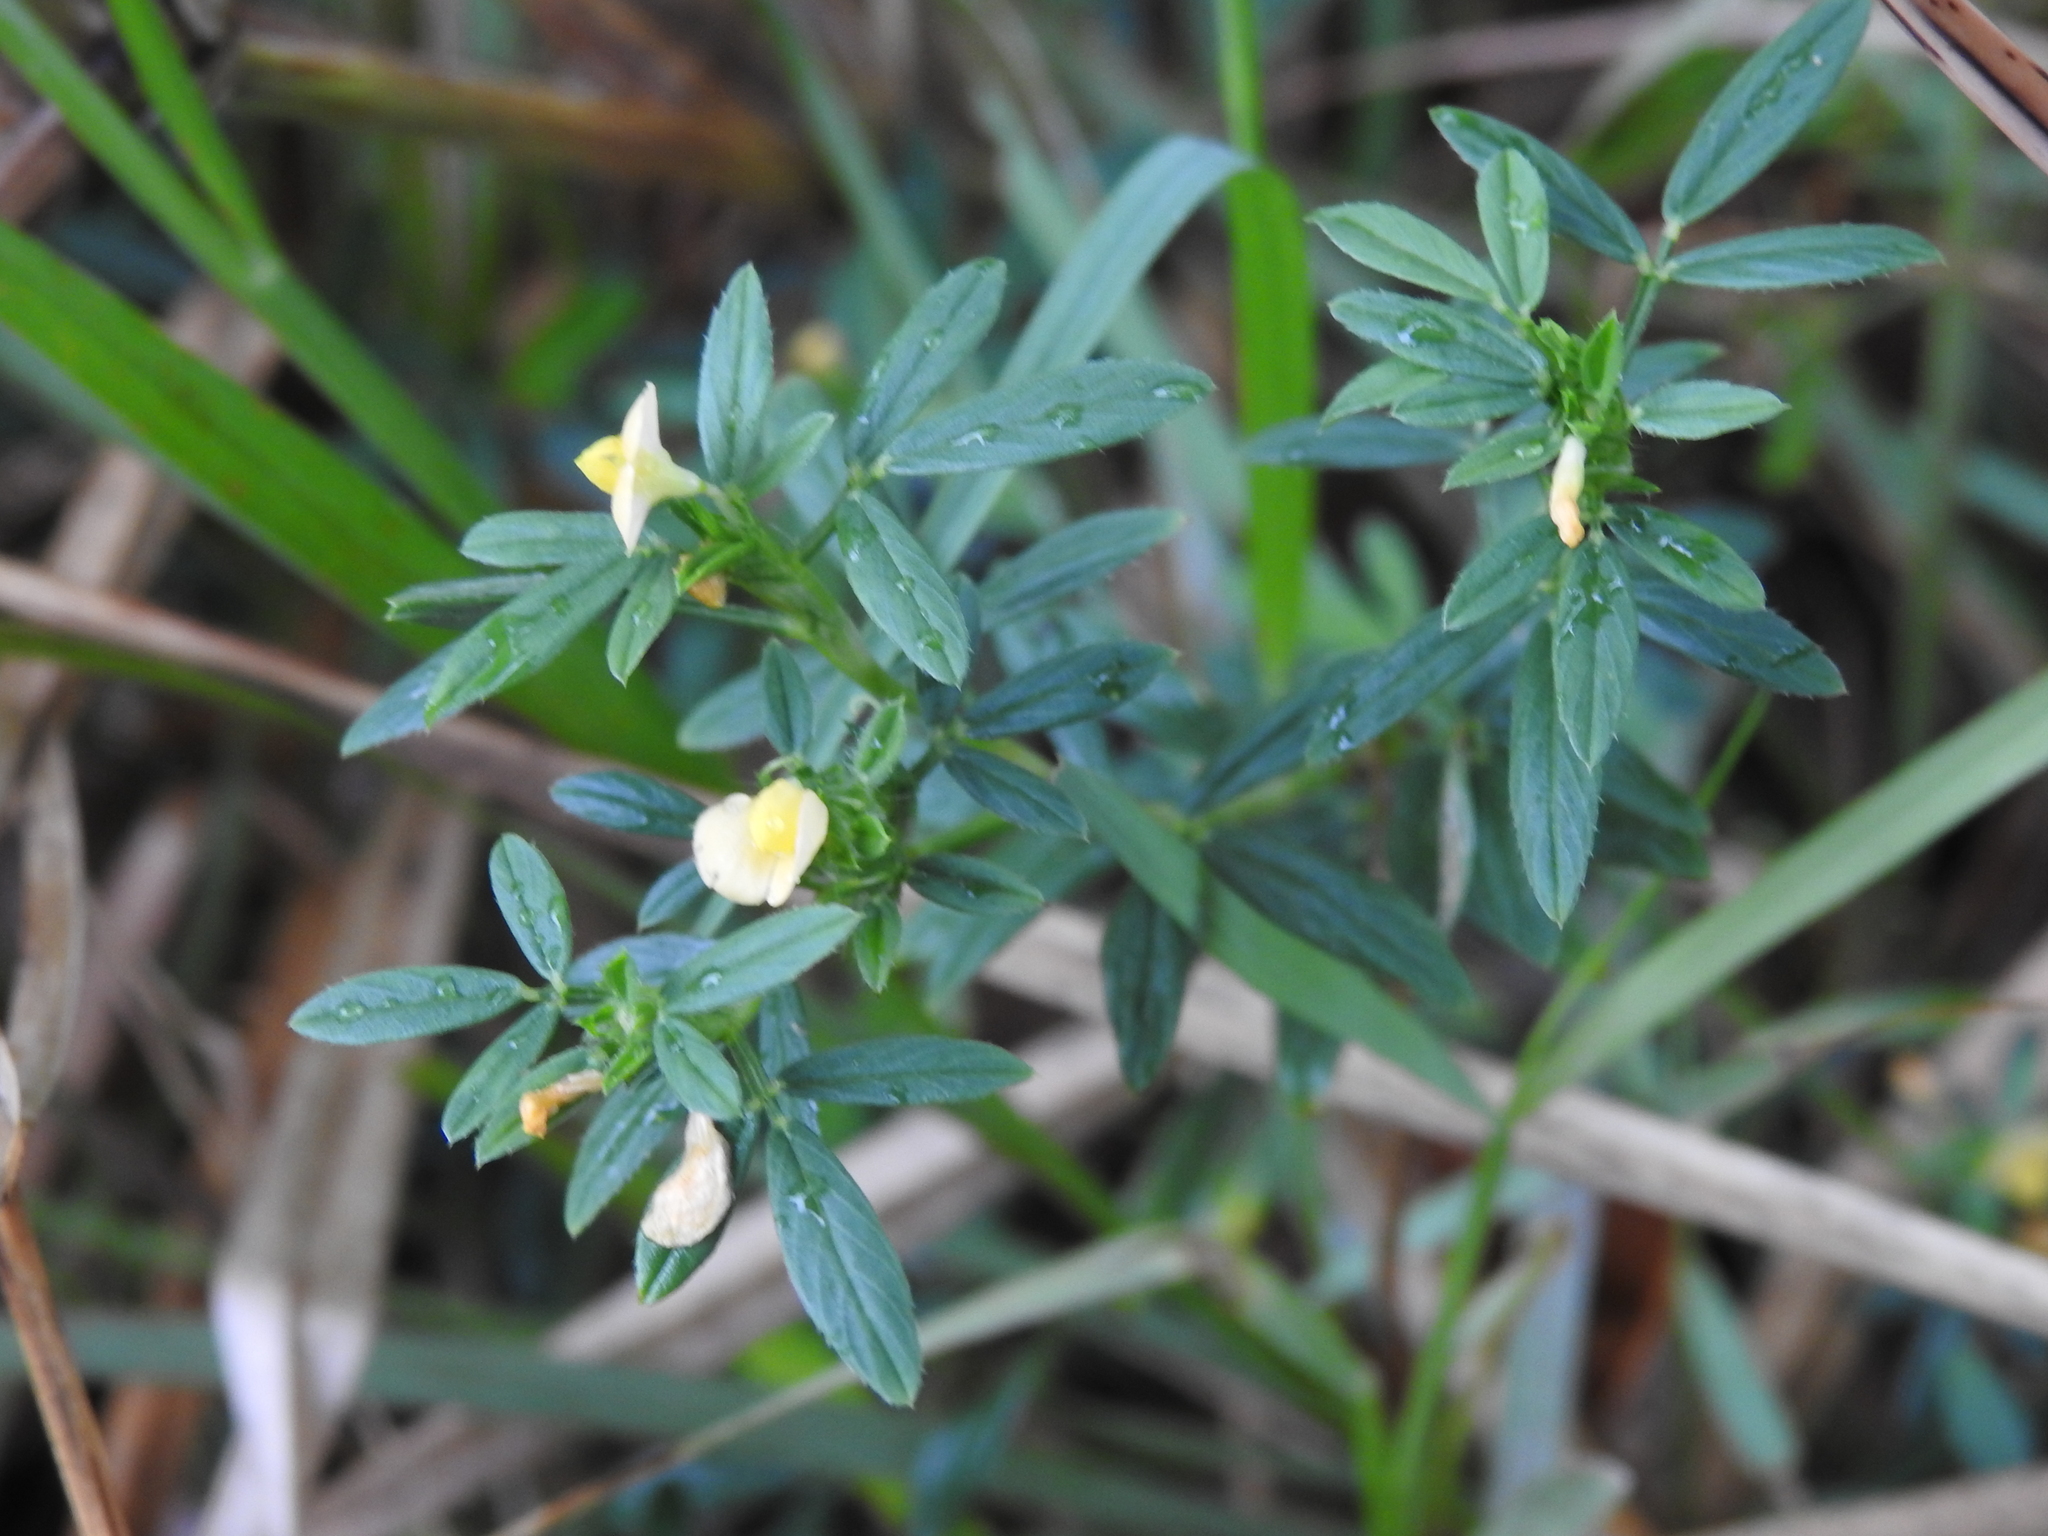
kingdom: Plantae
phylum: Tracheophyta
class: Magnoliopsida
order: Fabales
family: Fabaceae
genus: Stylosanthes
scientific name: Stylosanthes hamata
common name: Cheesytoes
